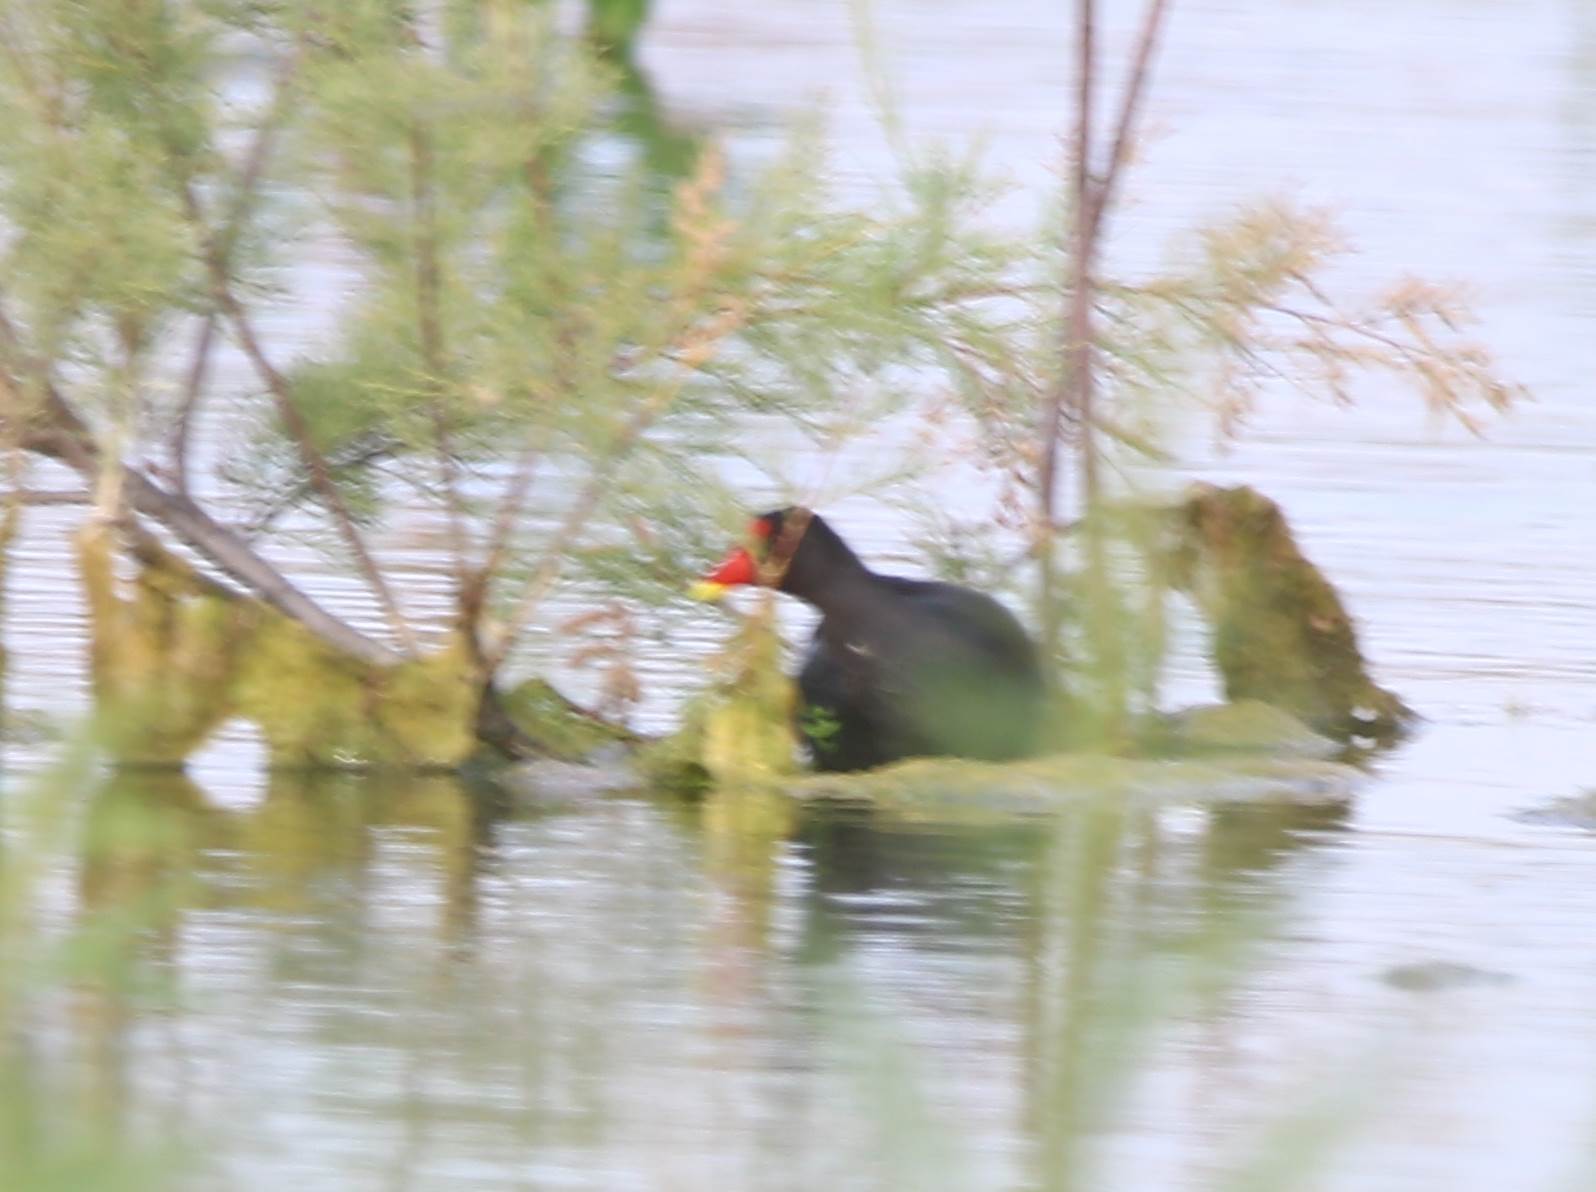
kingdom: Animalia
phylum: Chordata
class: Aves
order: Gruiformes
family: Rallidae
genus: Gallinula
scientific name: Gallinula chloropus
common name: Common moorhen
